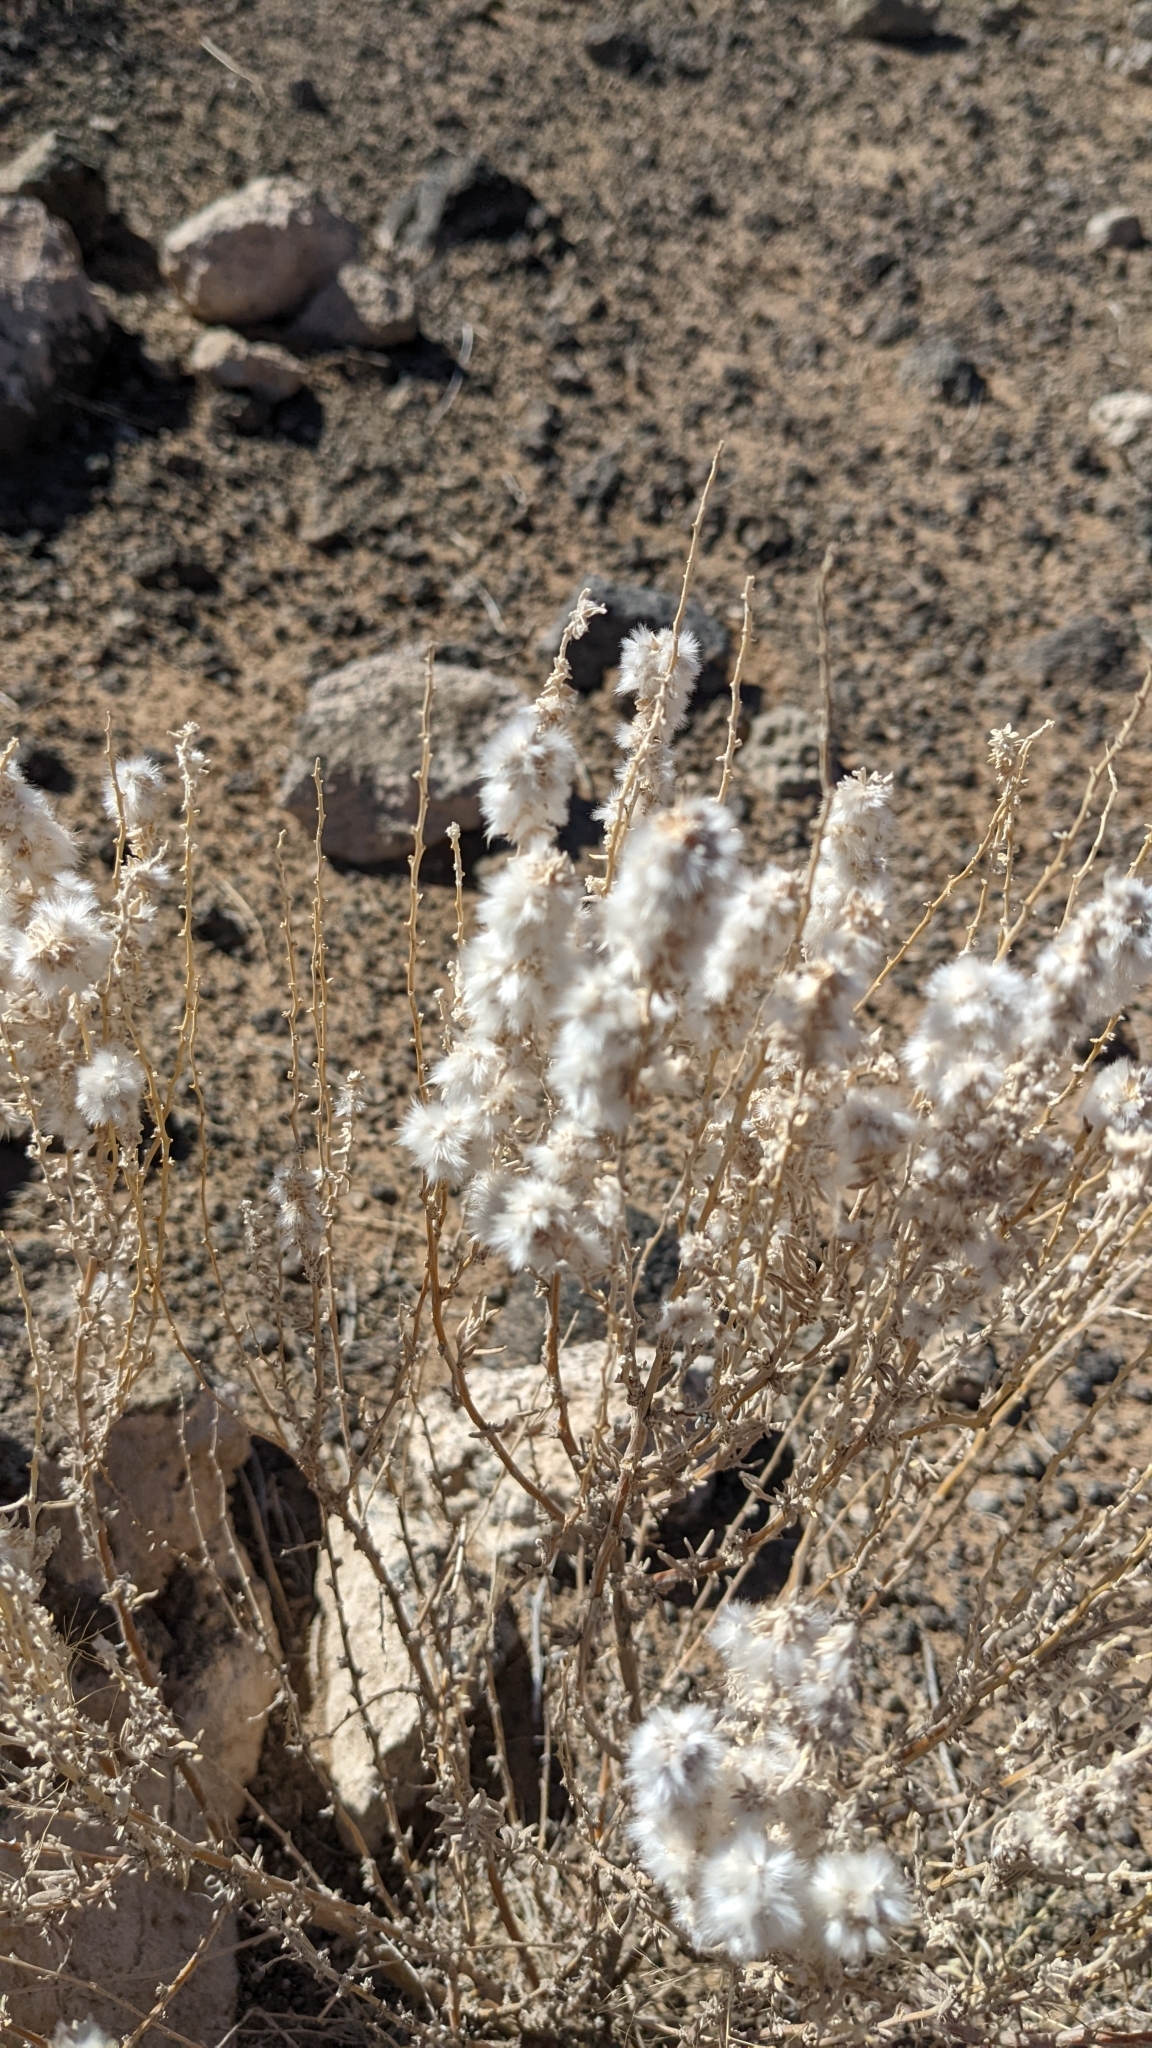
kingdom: Plantae
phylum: Tracheophyta
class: Magnoliopsida
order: Caryophyllales
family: Amaranthaceae
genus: Krascheninnikovia
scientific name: Krascheninnikovia lanata
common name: Winterfat
